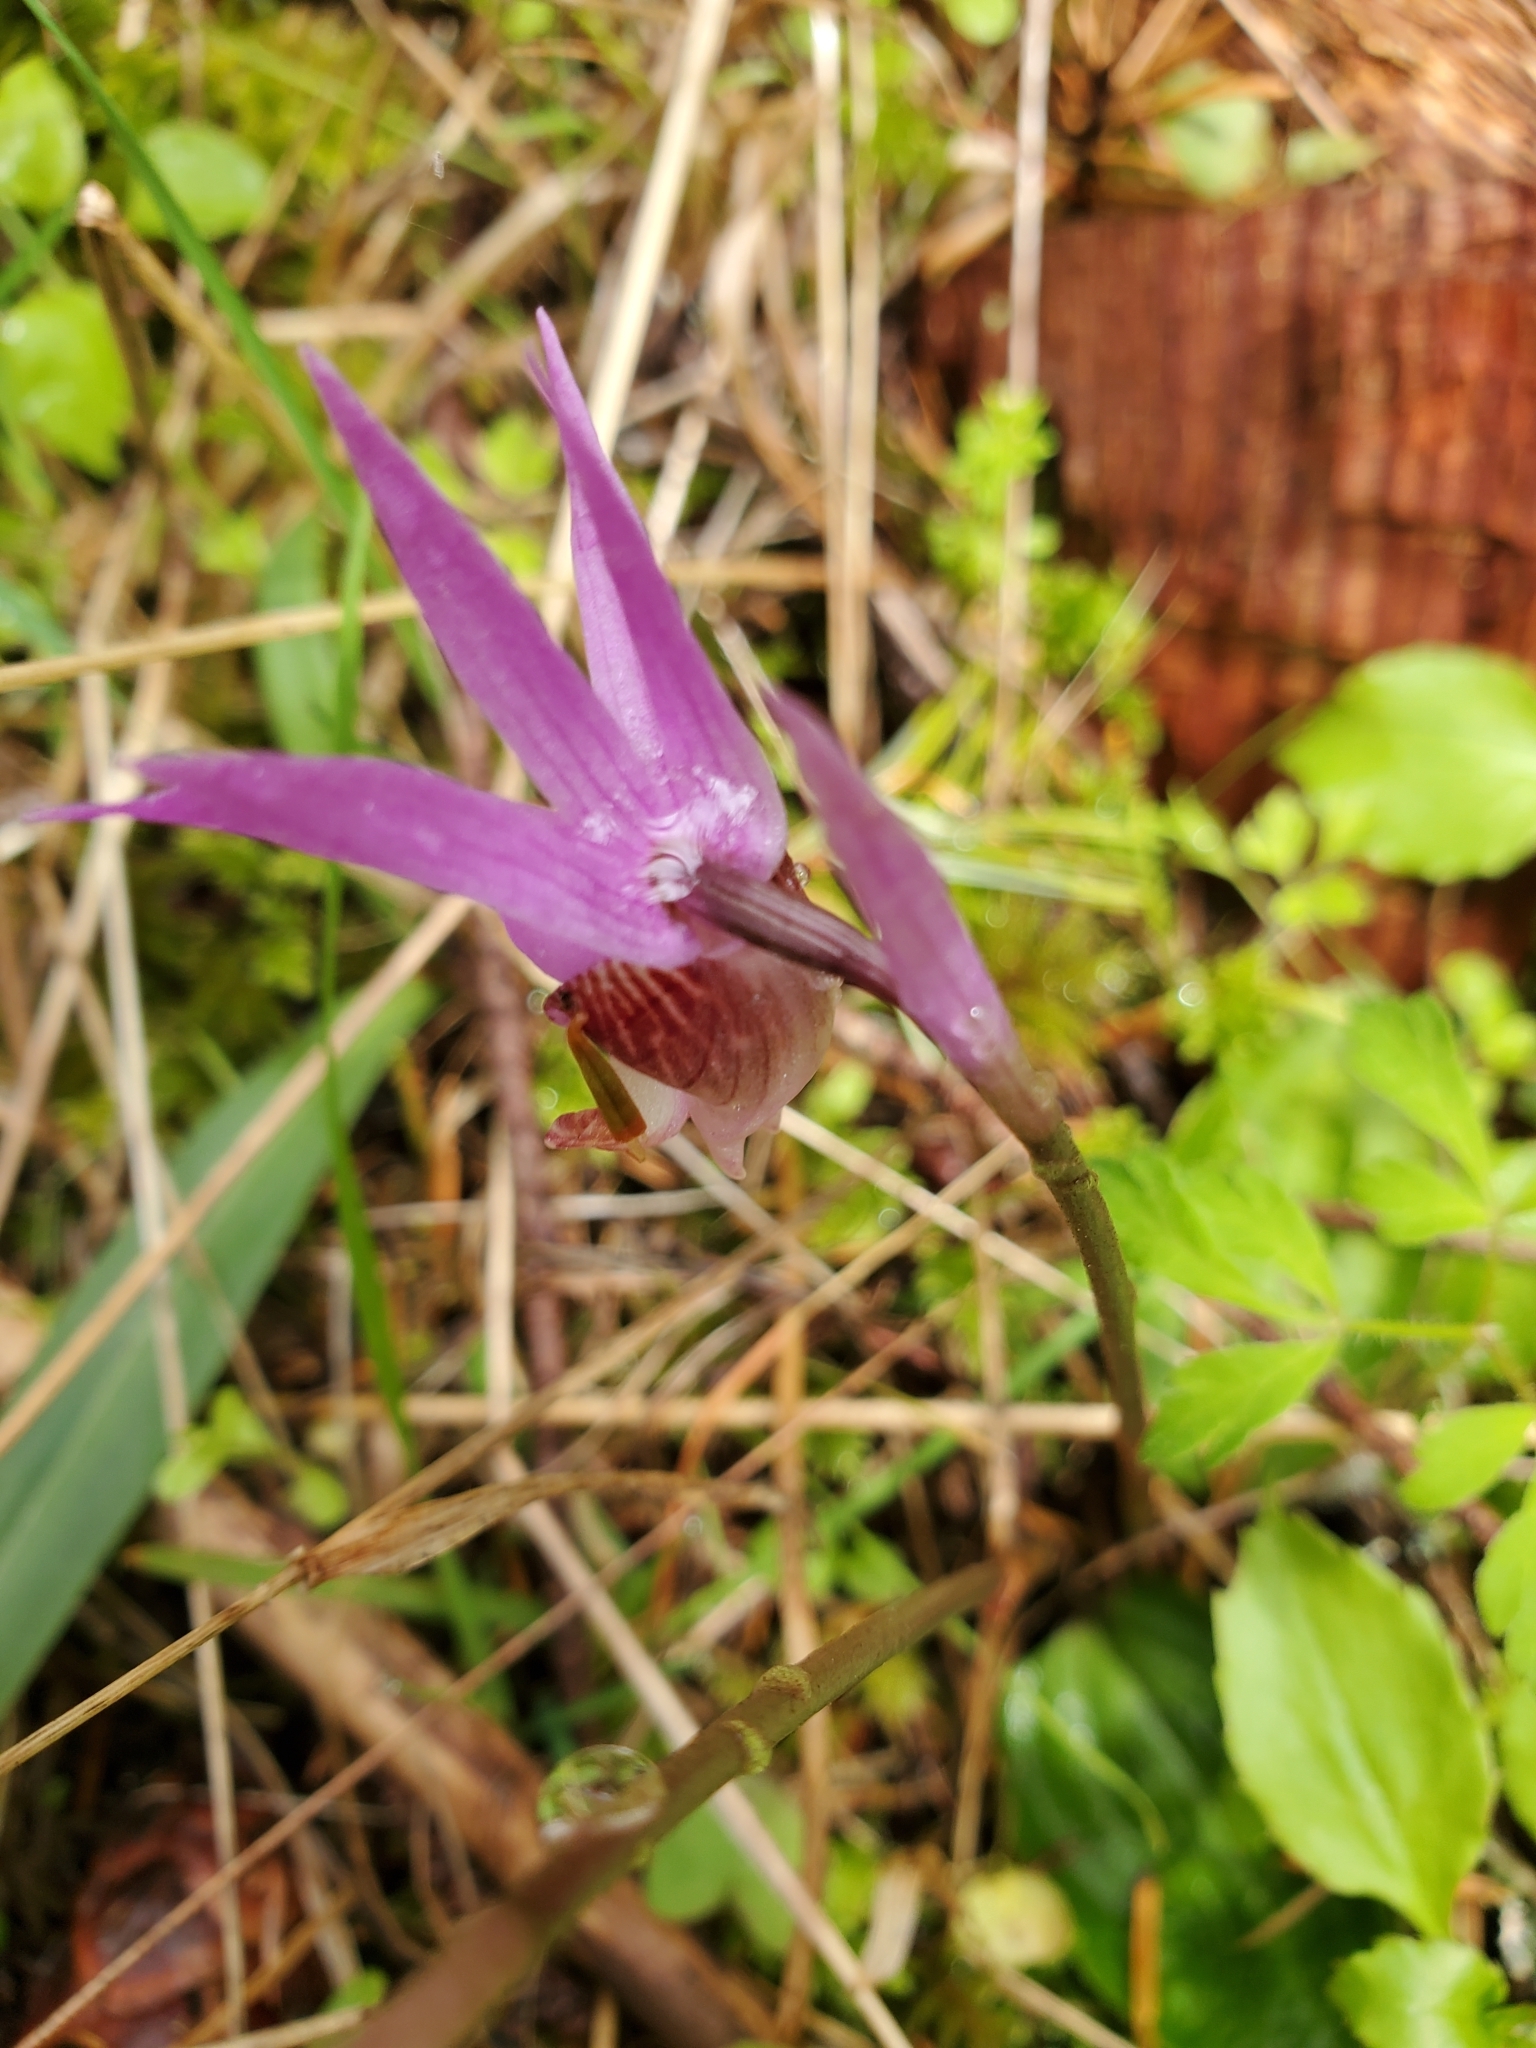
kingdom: Plantae
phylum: Tracheophyta
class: Liliopsida
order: Asparagales
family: Orchidaceae
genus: Calypso
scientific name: Calypso bulbosa
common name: Calypso
